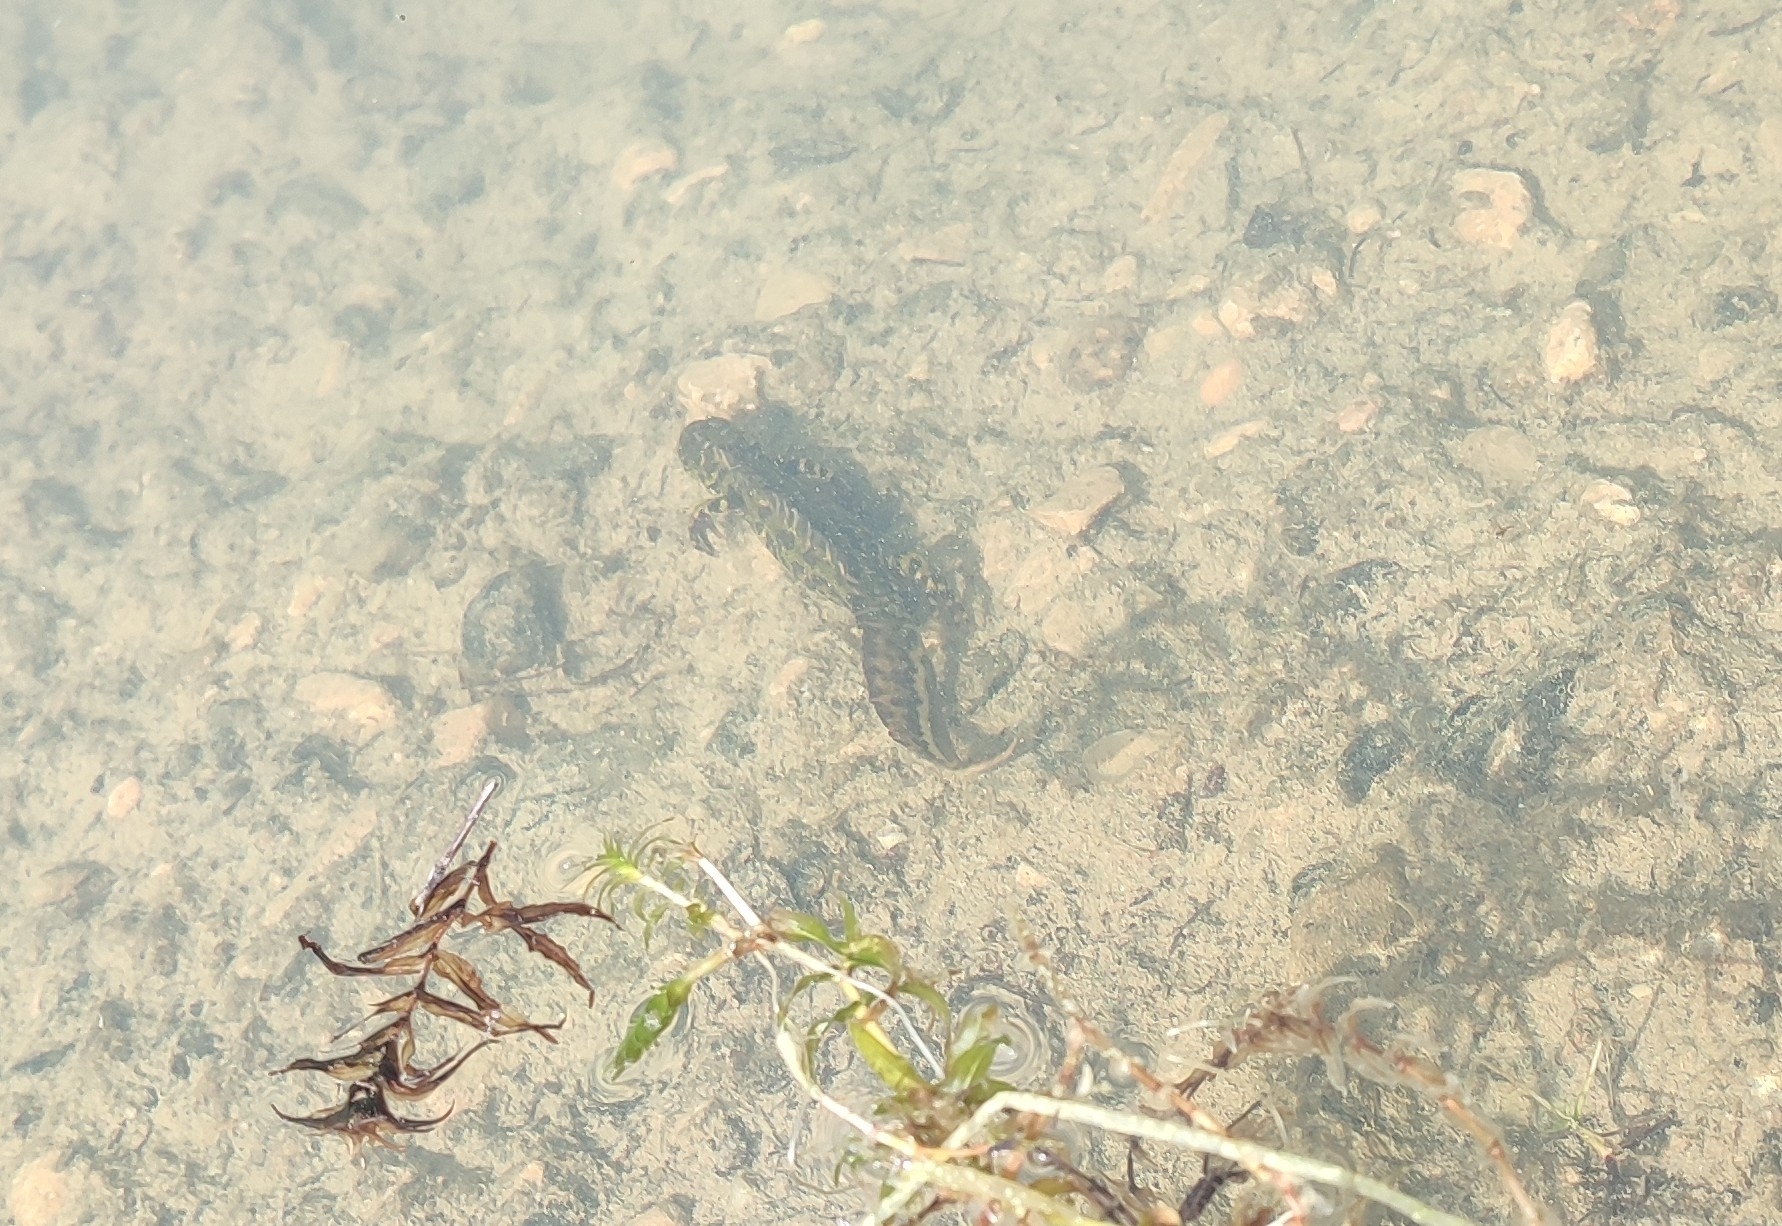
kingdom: Animalia
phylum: Chordata
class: Amphibia
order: Caudata
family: Salamandridae
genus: Triturus
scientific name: Triturus marmoratus
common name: Marbled newt
